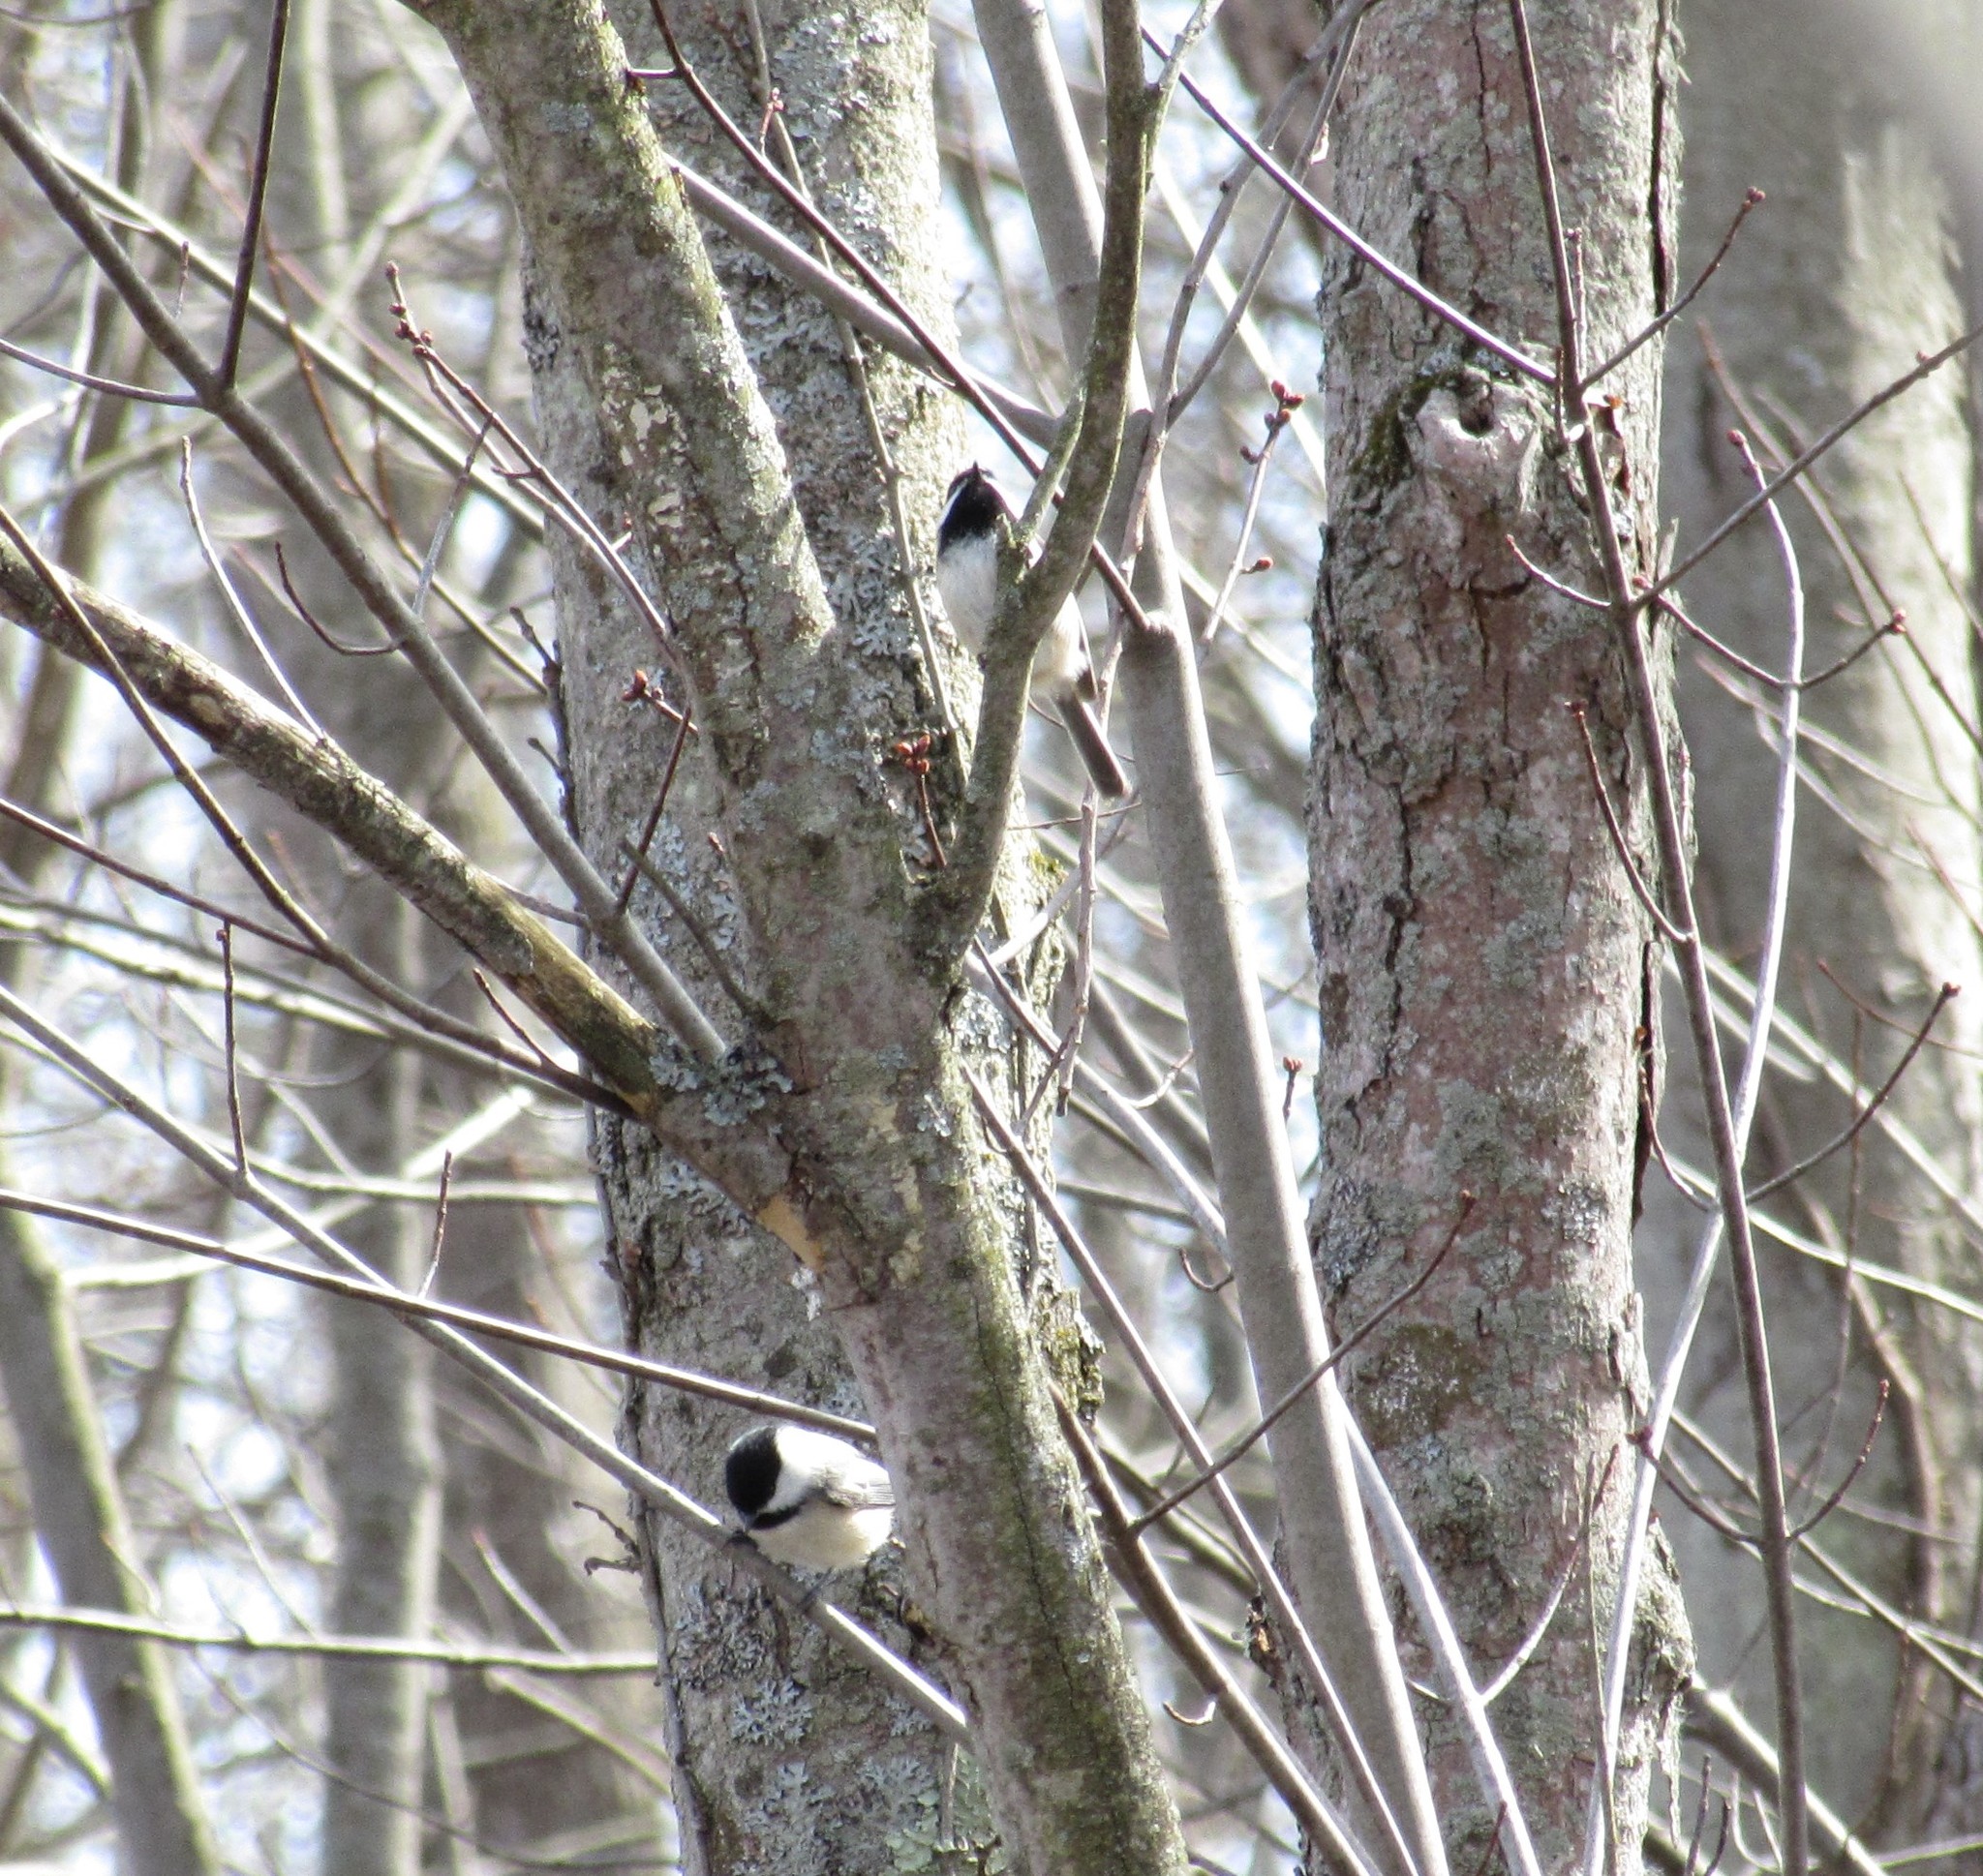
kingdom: Animalia
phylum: Chordata
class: Aves
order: Passeriformes
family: Paridae
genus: Poecile
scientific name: Poecile atricapillus
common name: Black-capped chickadee
